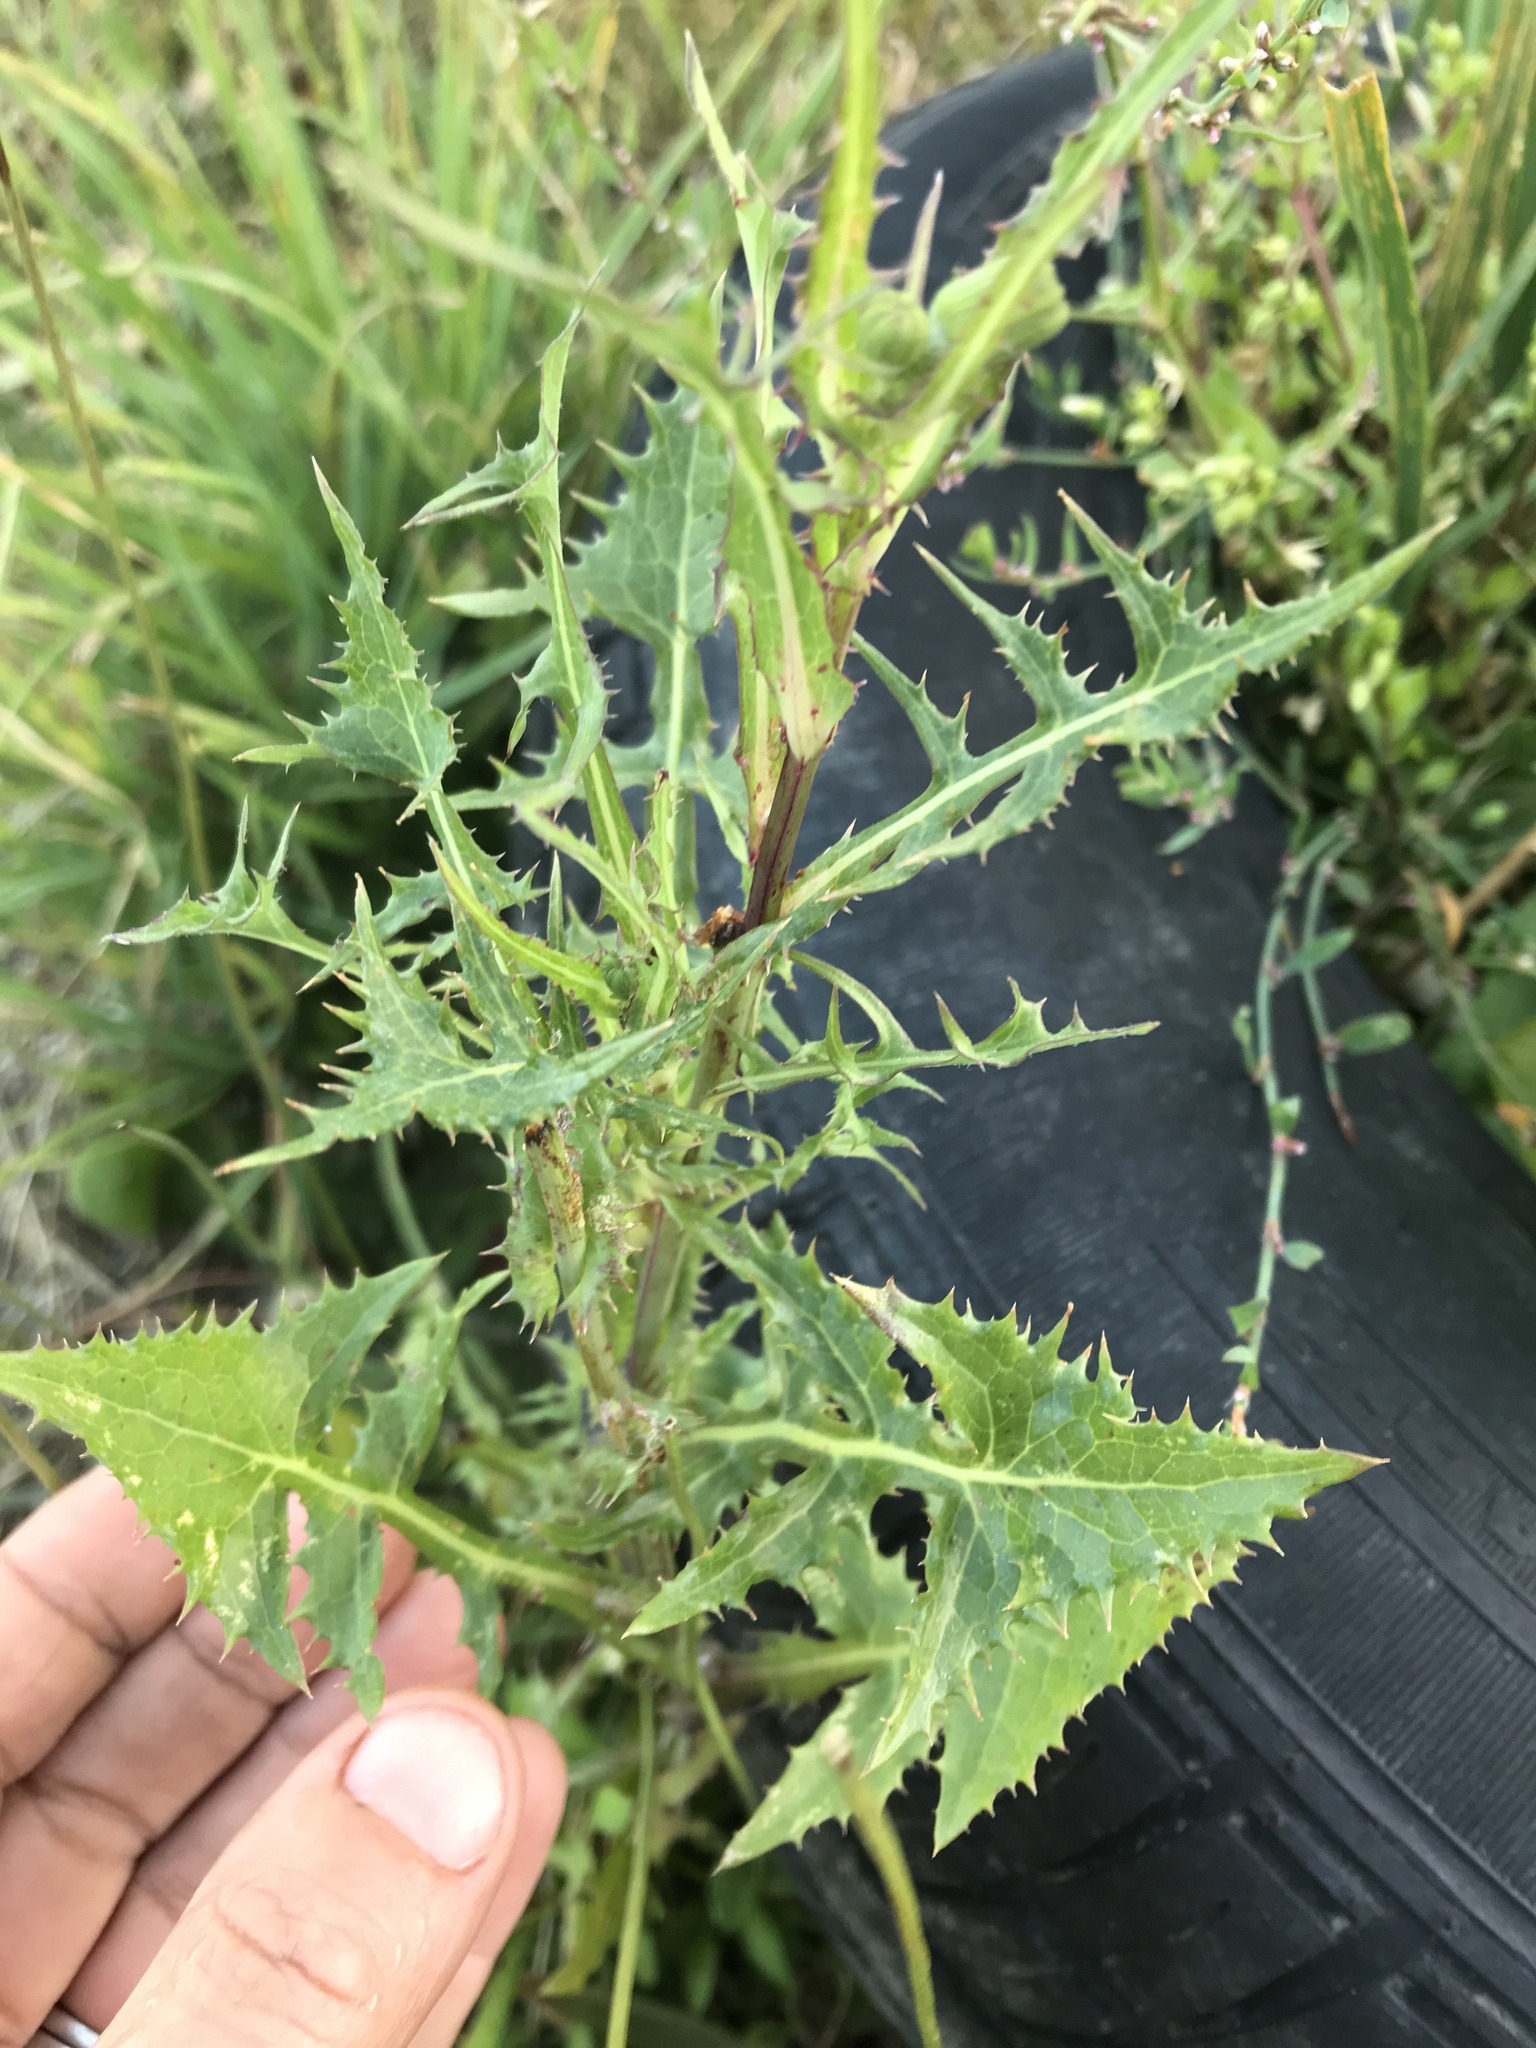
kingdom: Plantae
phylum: Tracheophyta
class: Magnoliopsida
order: Asterales
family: Asteraceae
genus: Sonchus
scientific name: Sonchus asper
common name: Prickly sow-thistle
